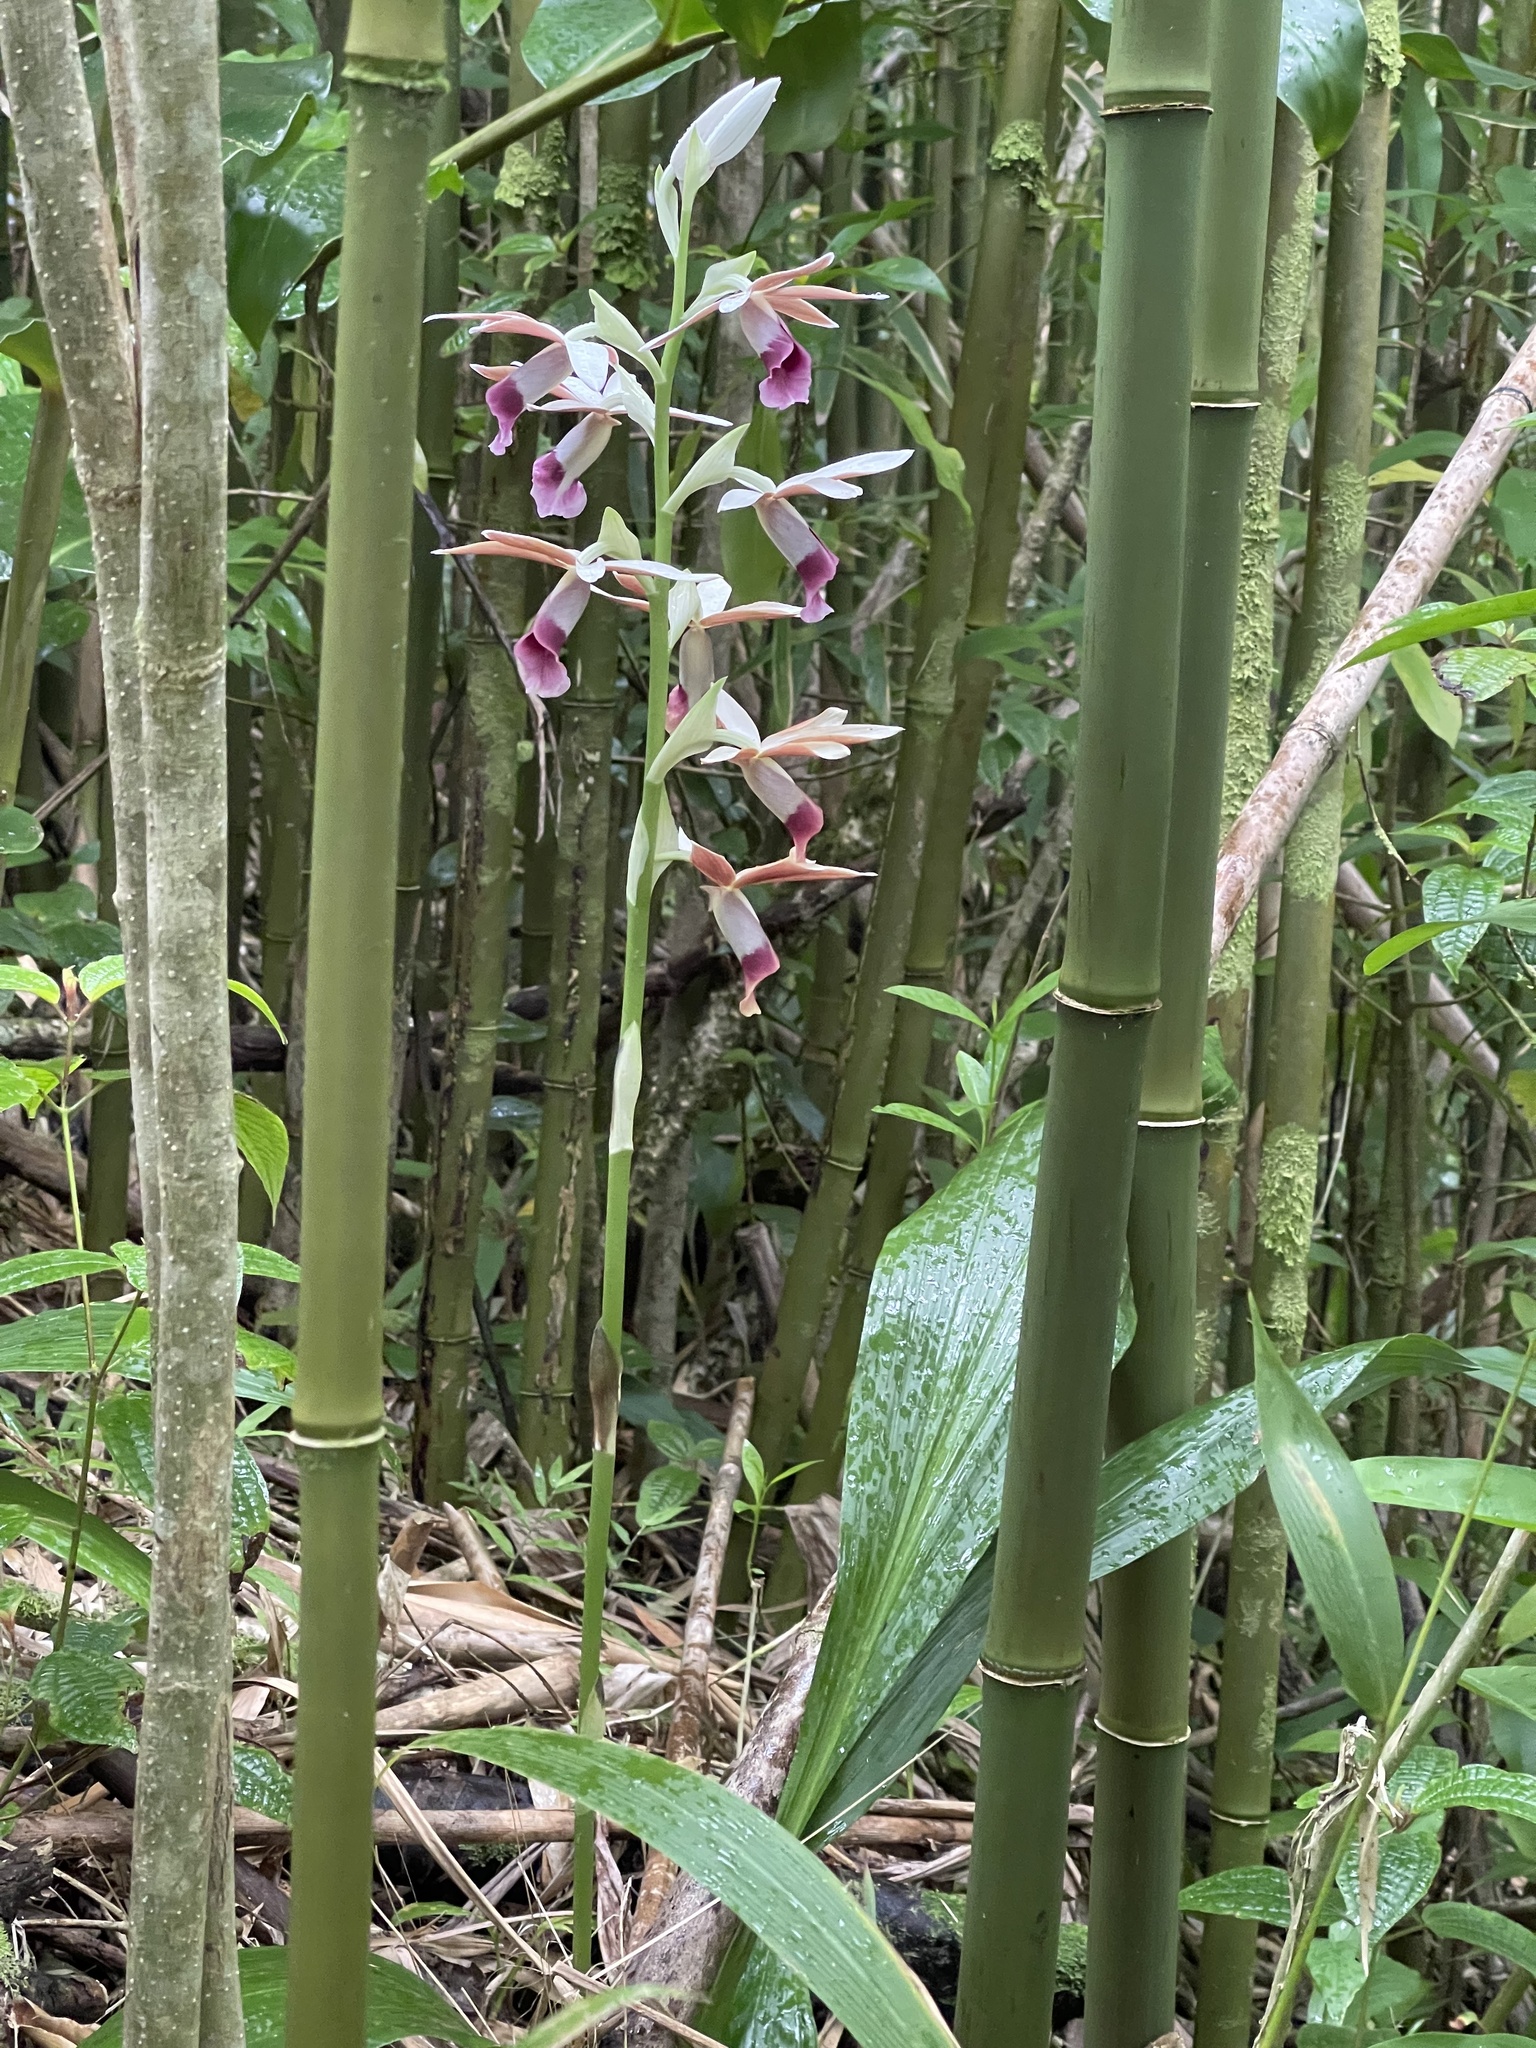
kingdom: Plantae
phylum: Tracheophyta
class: Liliopsida
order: Asparagales
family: Orchidaceae
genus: Calanthe
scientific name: Calanthe tankervilleae
